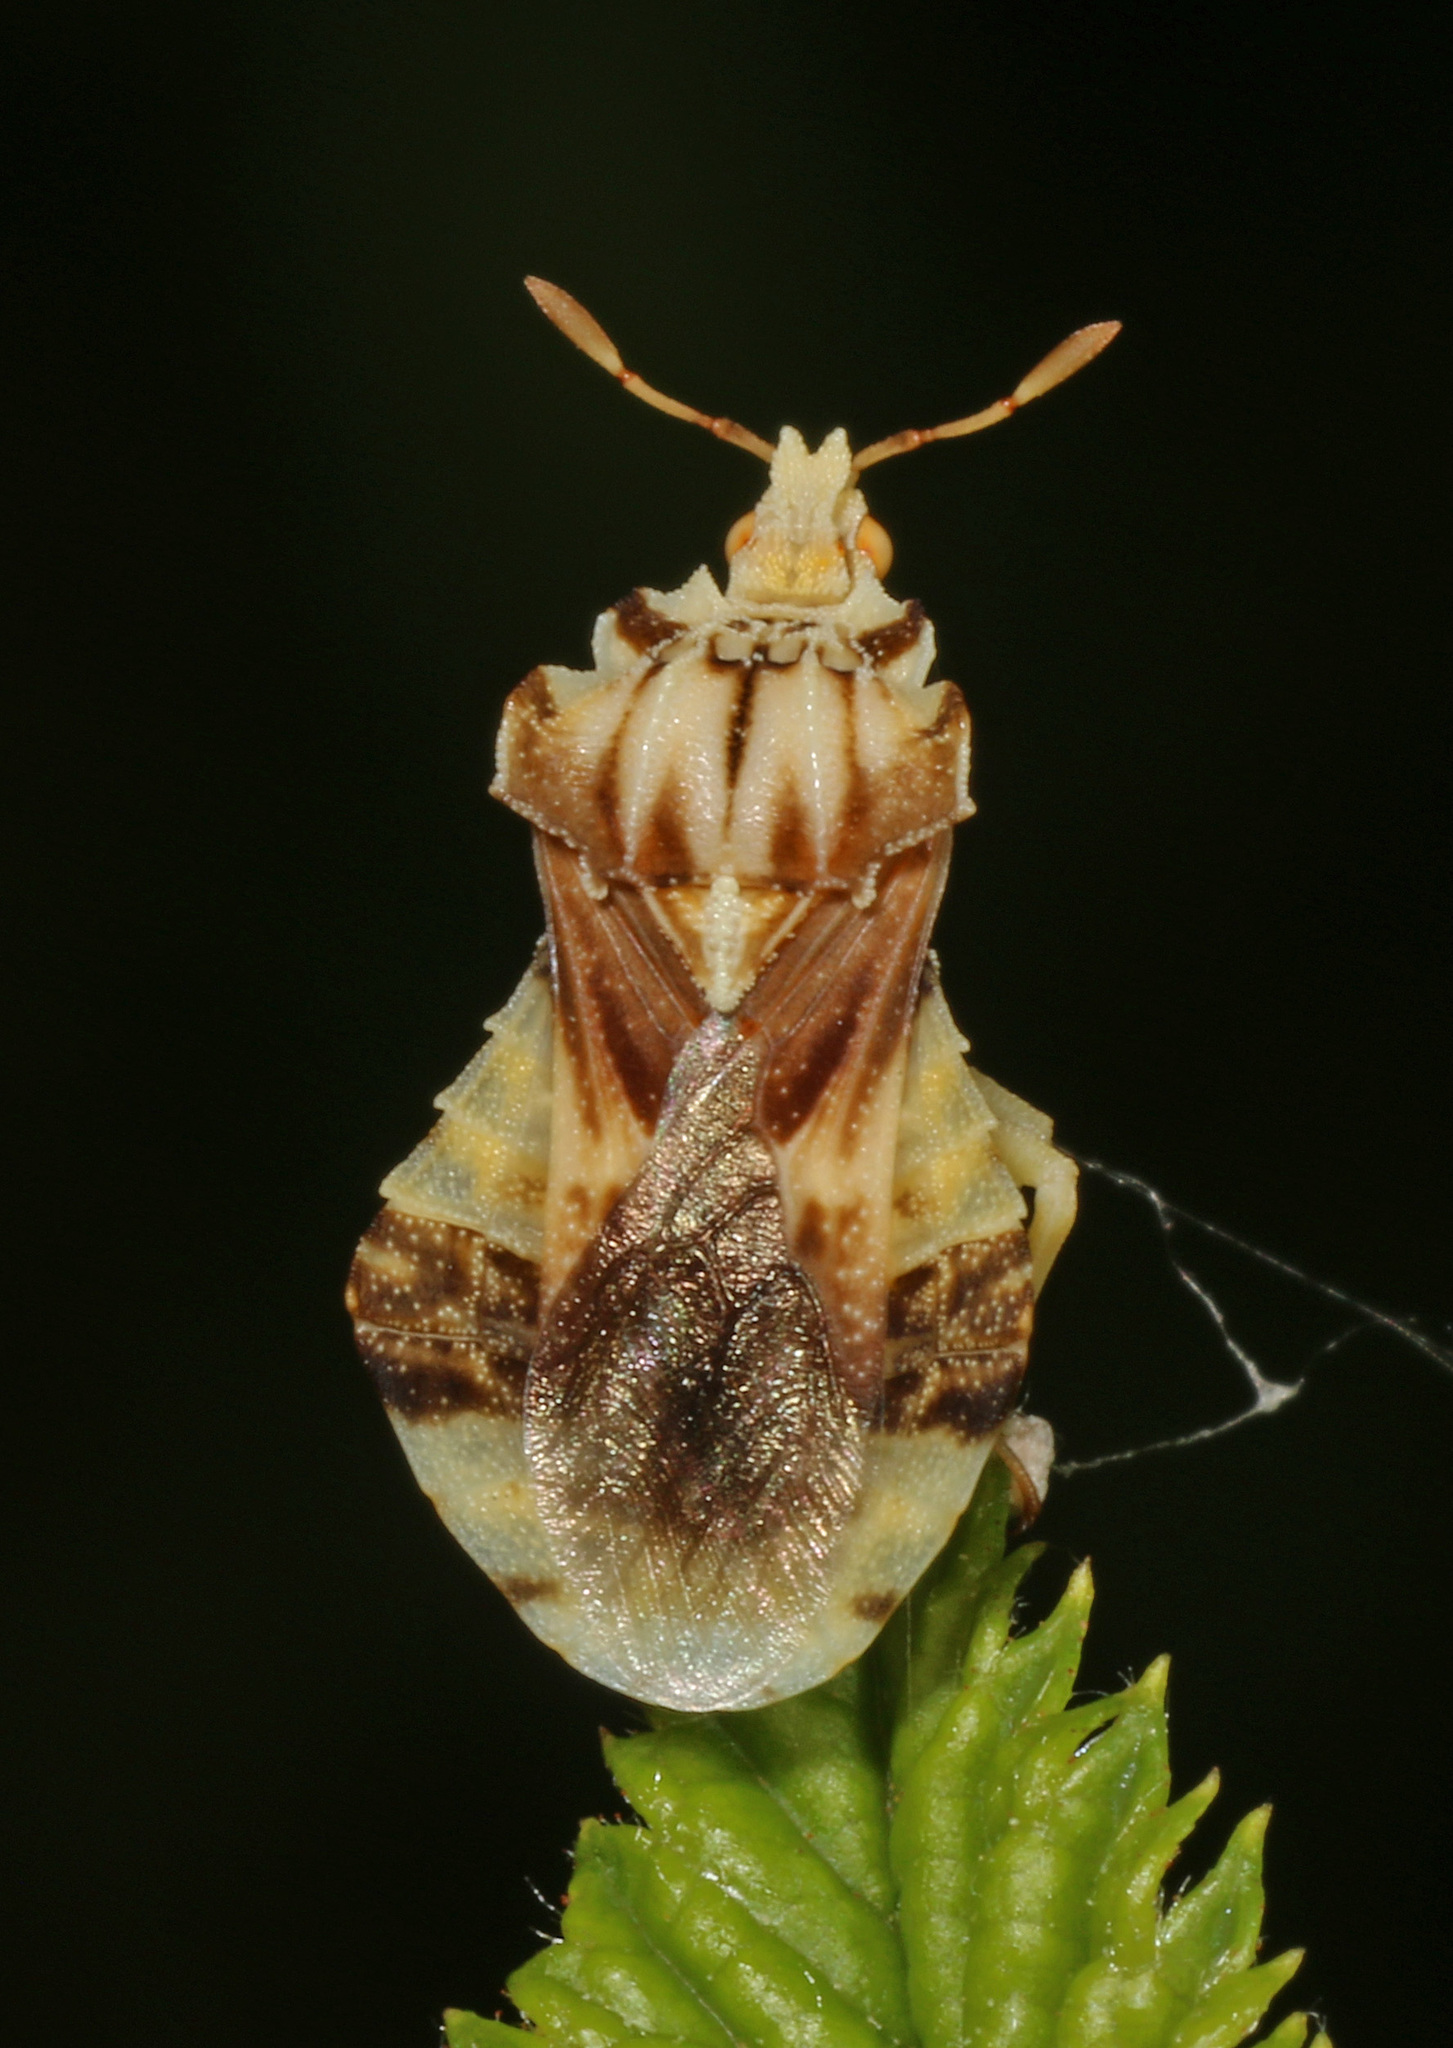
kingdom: Animalia
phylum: Arthropoda
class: Insecta
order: Hemiptera
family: Reduviidae
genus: Phymata
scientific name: Phymata fasciata
